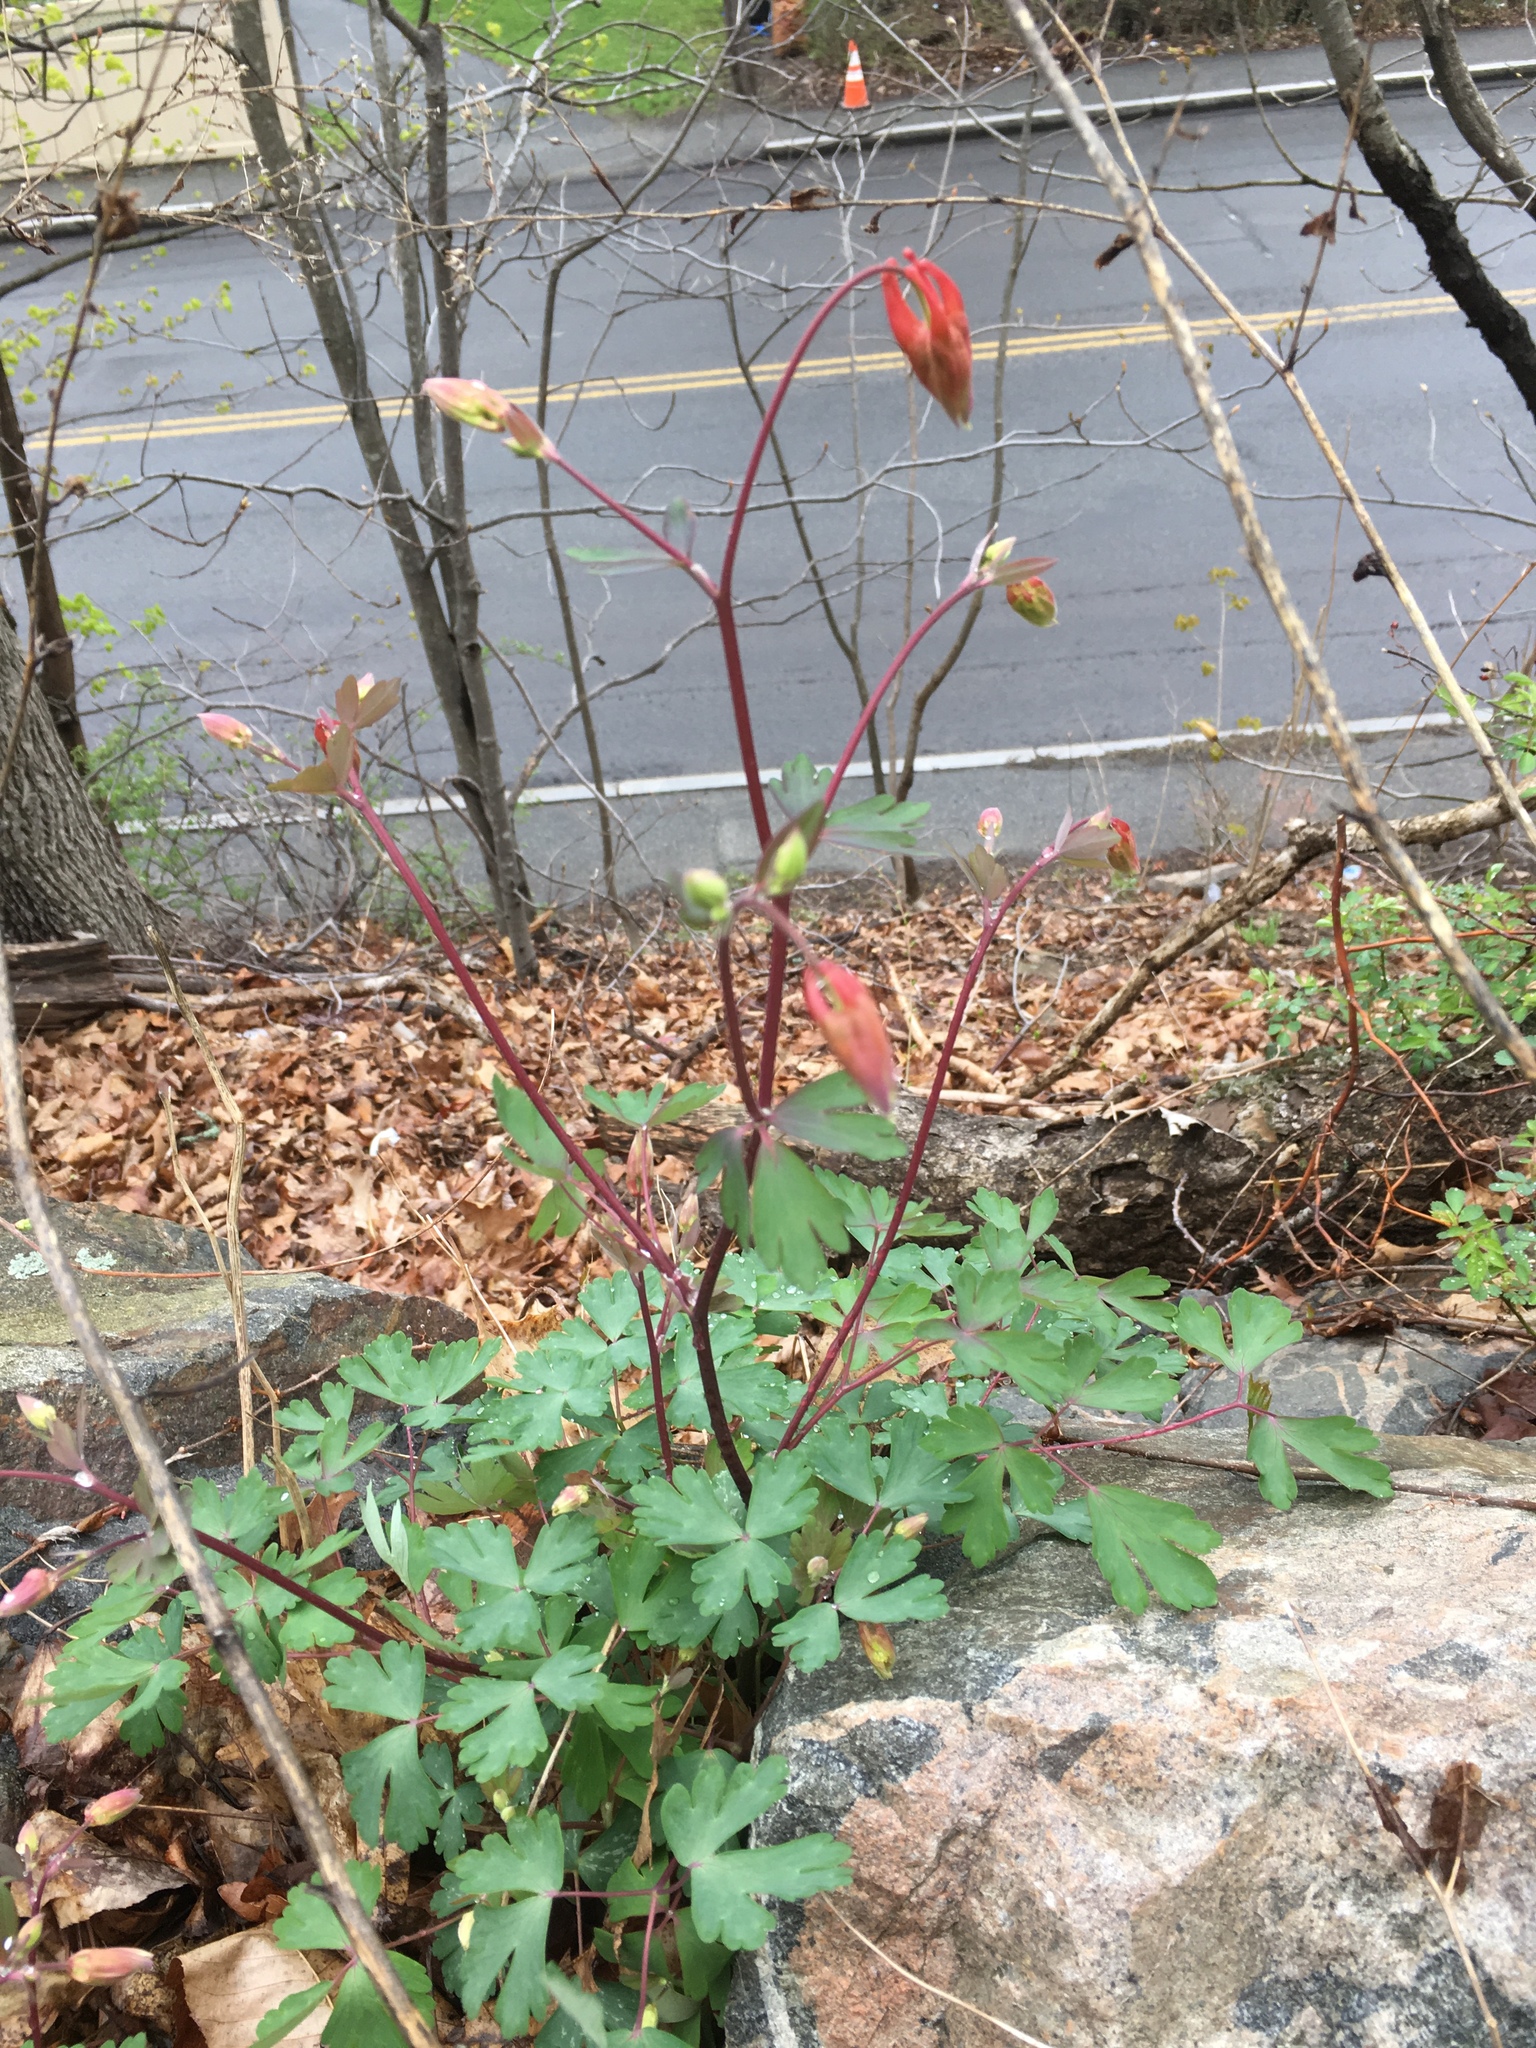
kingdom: Plantae
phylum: Tracheophyta
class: Magnoliopsida
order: Ranunculales
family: Ranunculaceae
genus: Aquilegia
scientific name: Aquilegia canadensis
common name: American columbine
